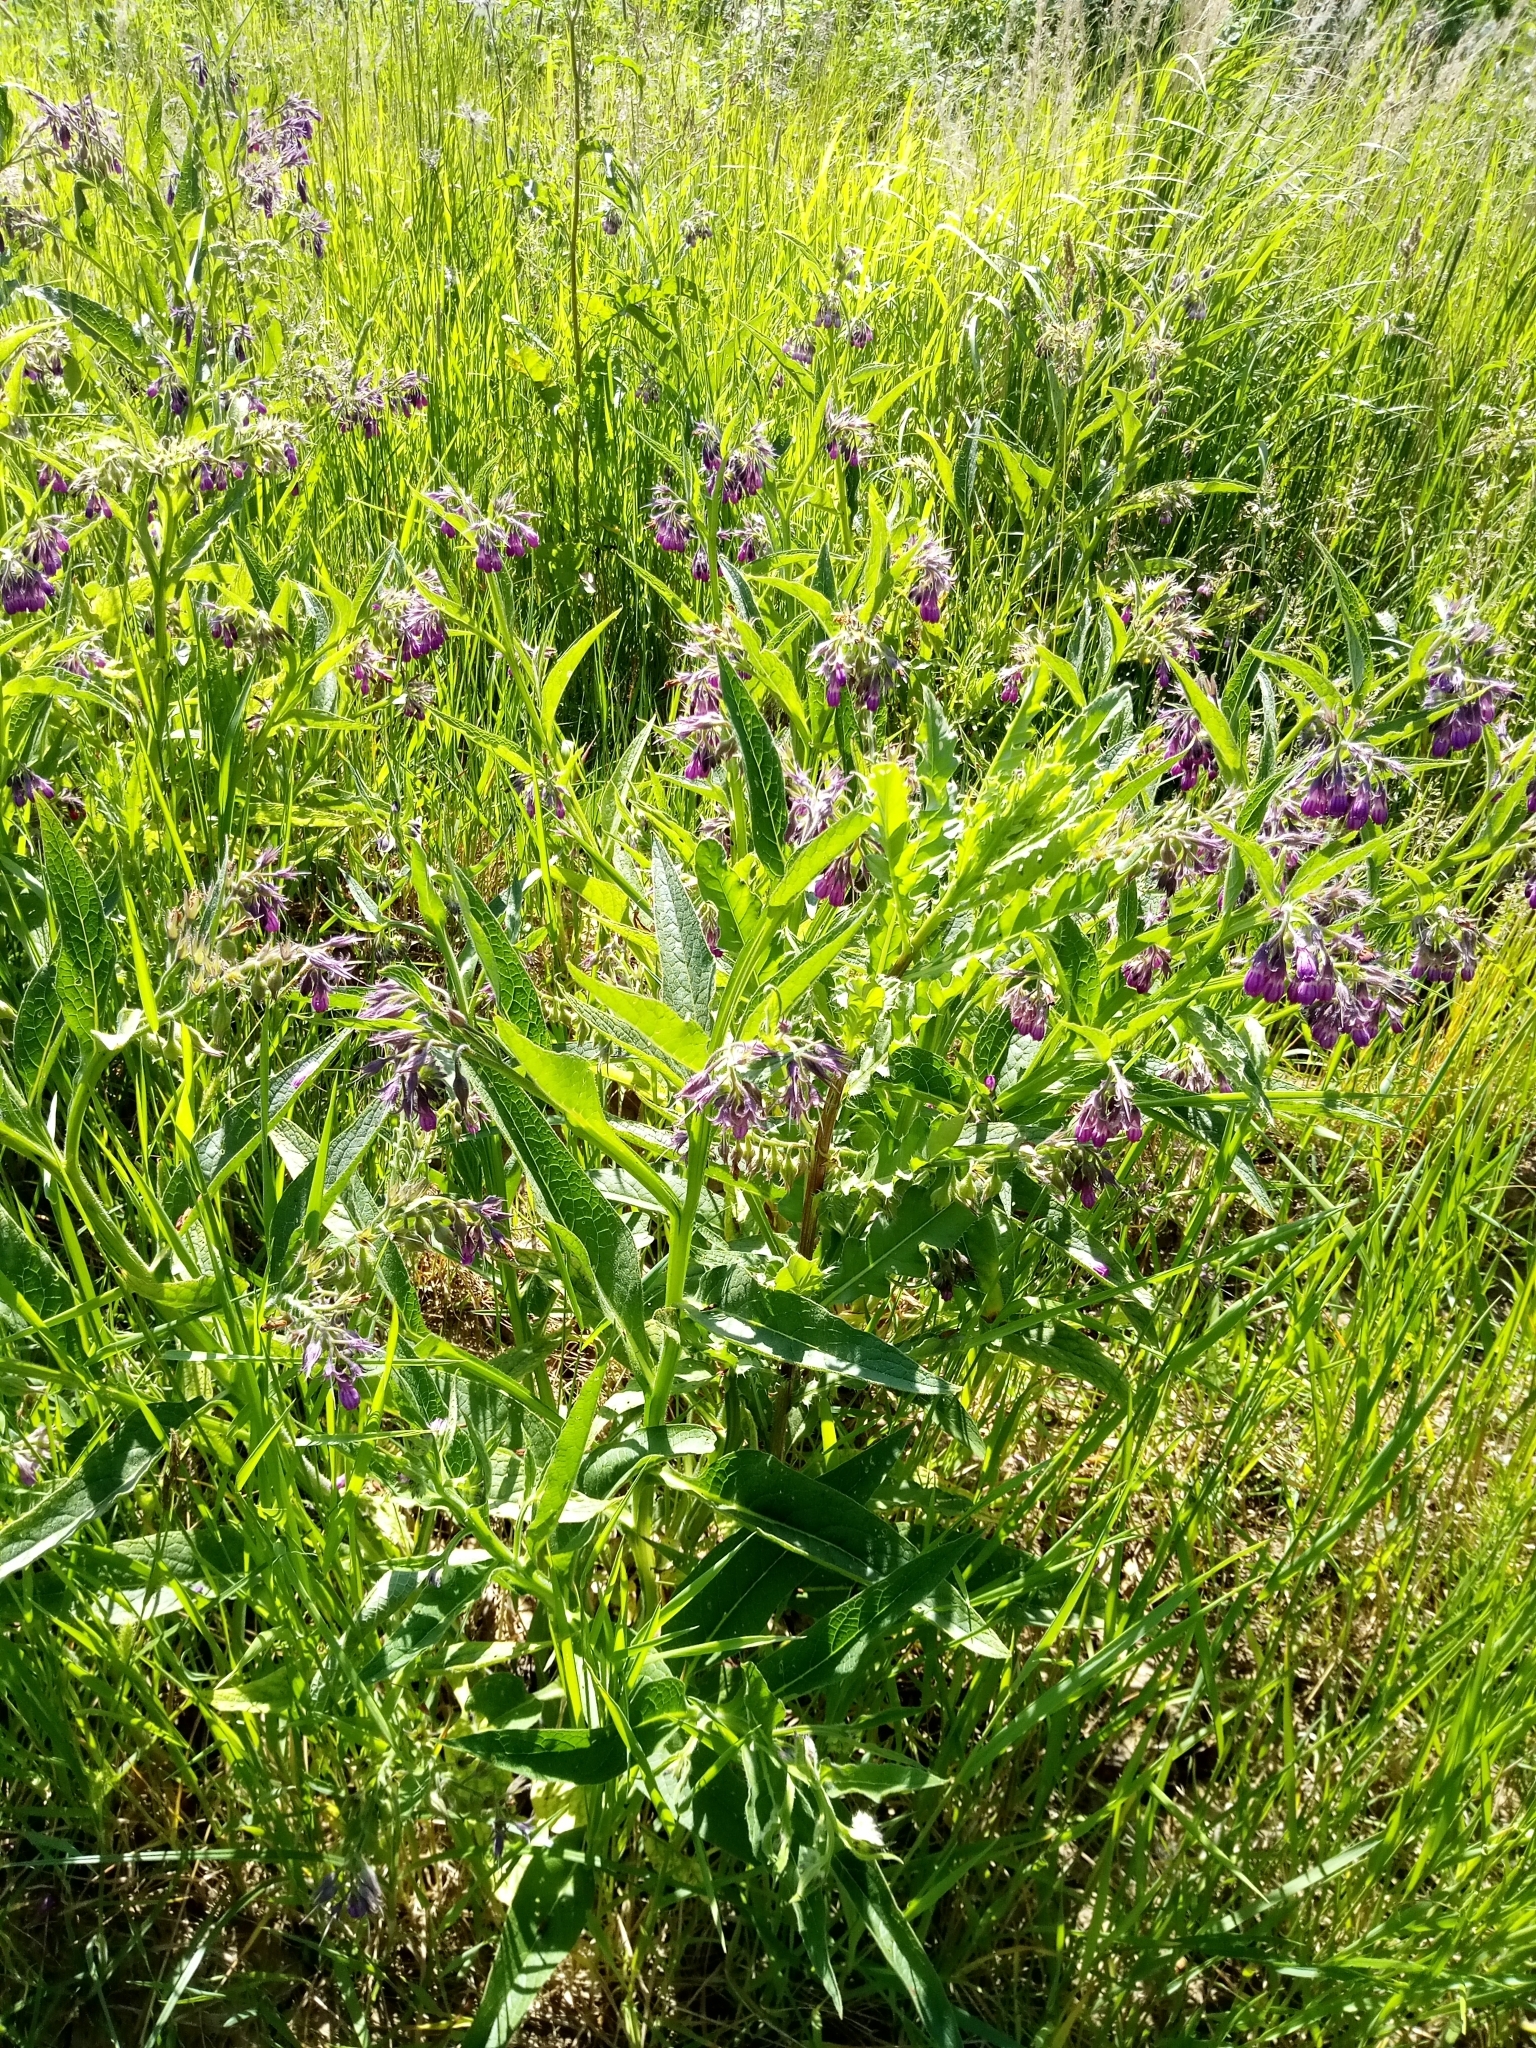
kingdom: Plantae
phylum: Tracheophyta
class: Magnoliopsida
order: Boraginales
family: Boraginaceae
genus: Symphytum
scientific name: Symphytum officinale
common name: Common comfrey
